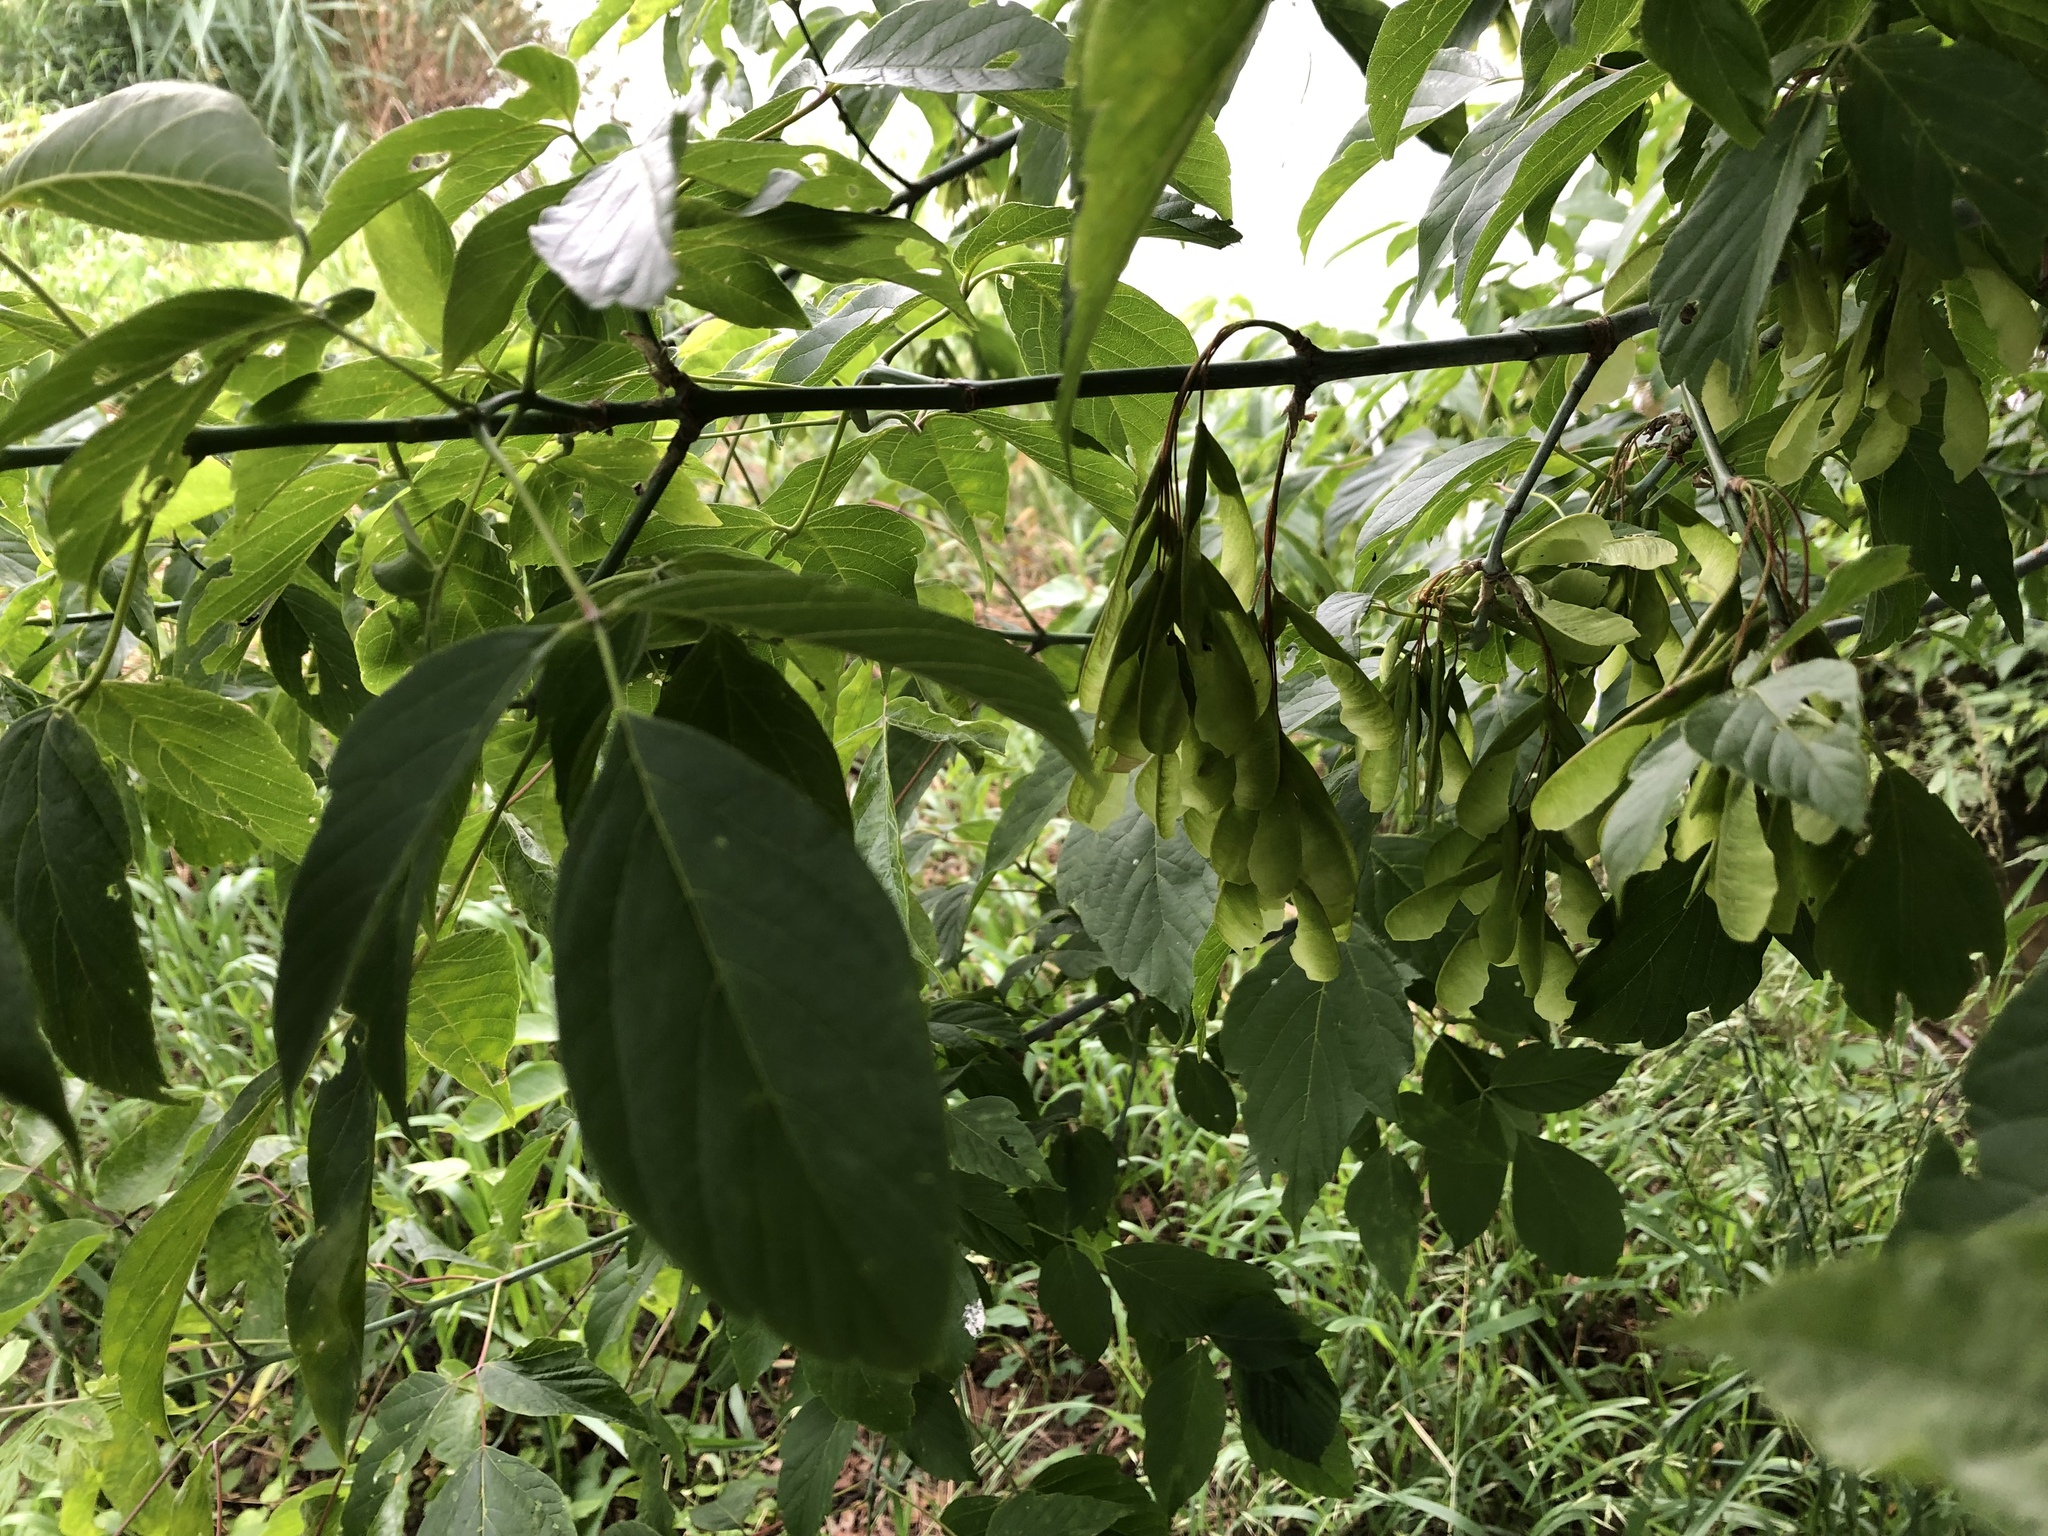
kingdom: Plantae
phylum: Tracheophyta
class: Magnoliopsida
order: Sapindales
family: Sapindaceae
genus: Acer
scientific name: Acer negundo
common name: Ashleaf maple
